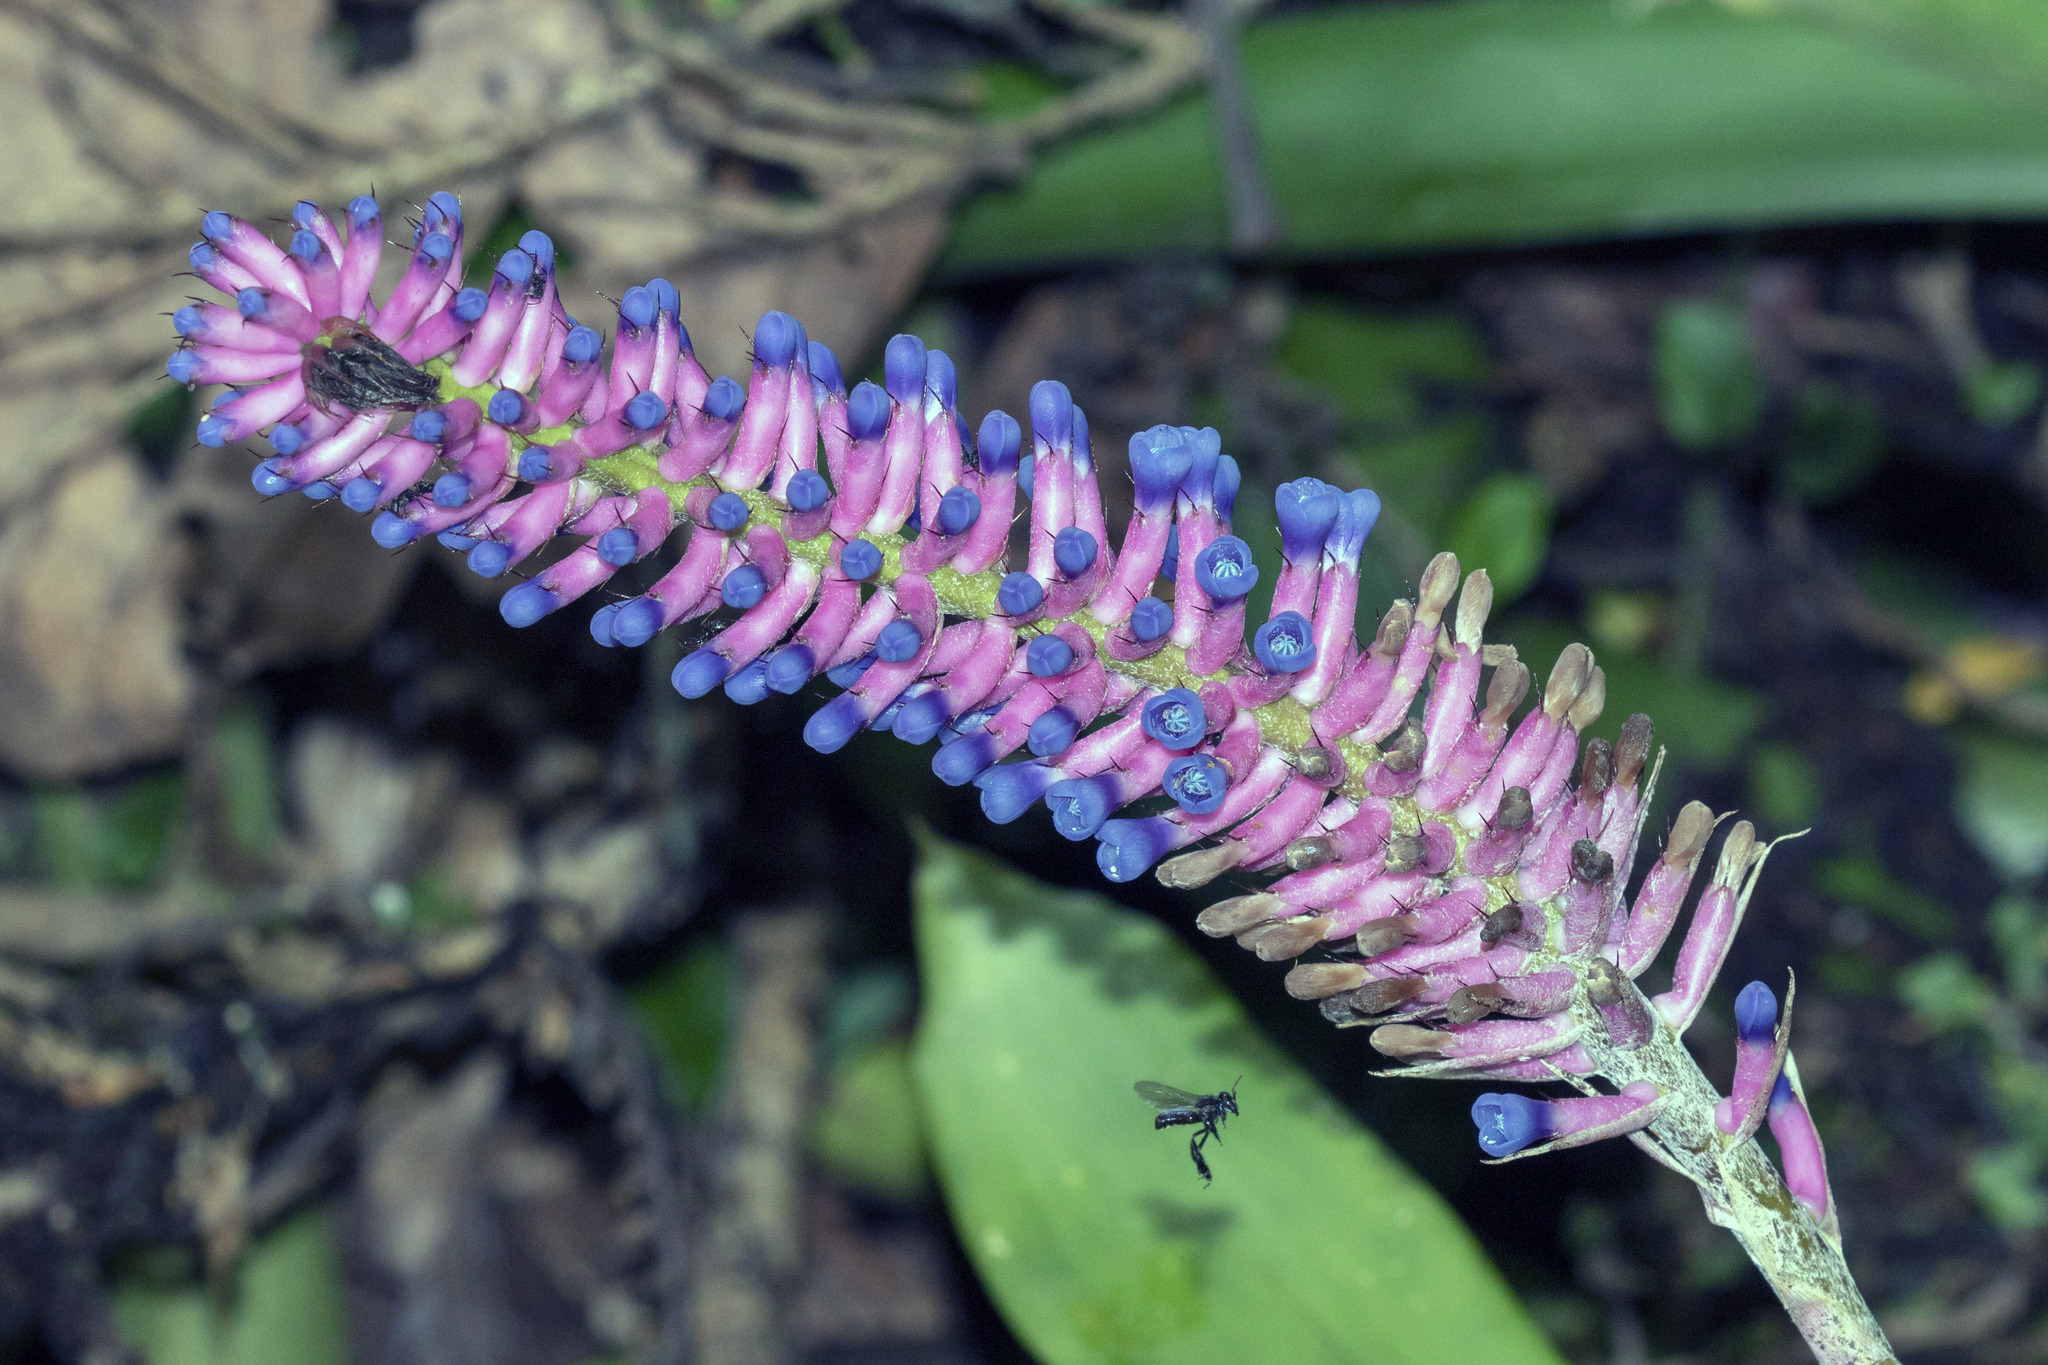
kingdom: Plantae
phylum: Tracheophyta
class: Liliopsida
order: Poales
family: Bromeliaceae
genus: Aechmea
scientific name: Aechmea gamosepala
